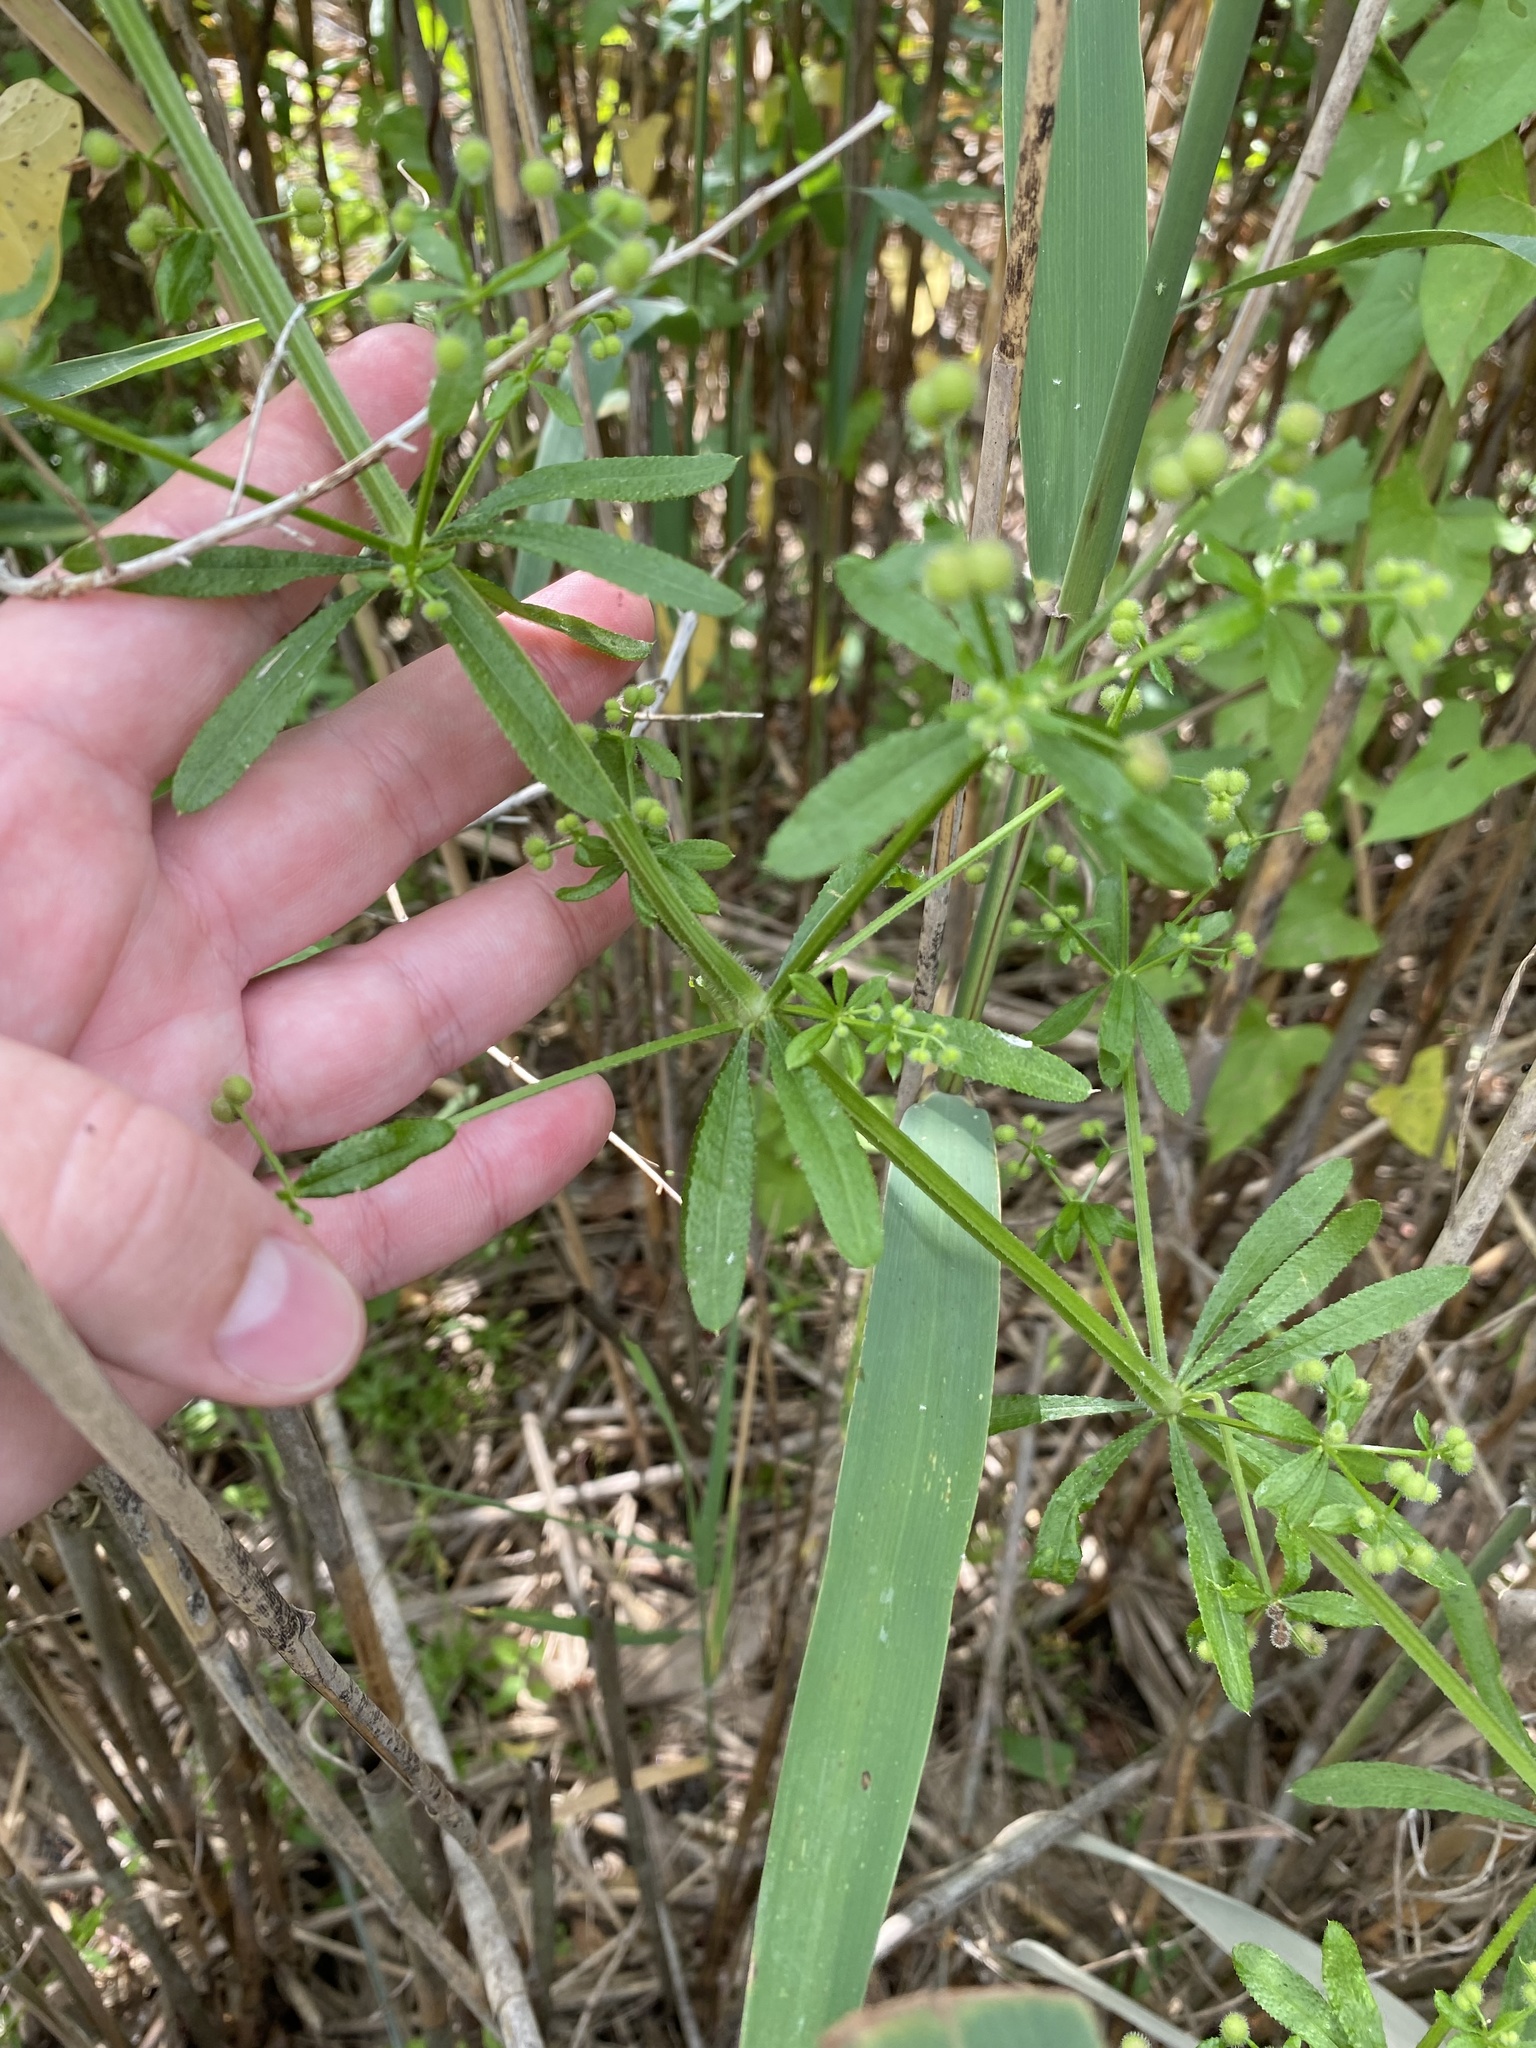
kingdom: Plantae
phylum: Tracheophyta
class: Magnoliopsida
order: Gentianales
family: Rubiaceae
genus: Galium
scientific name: Galium aparine
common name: Cleavers
